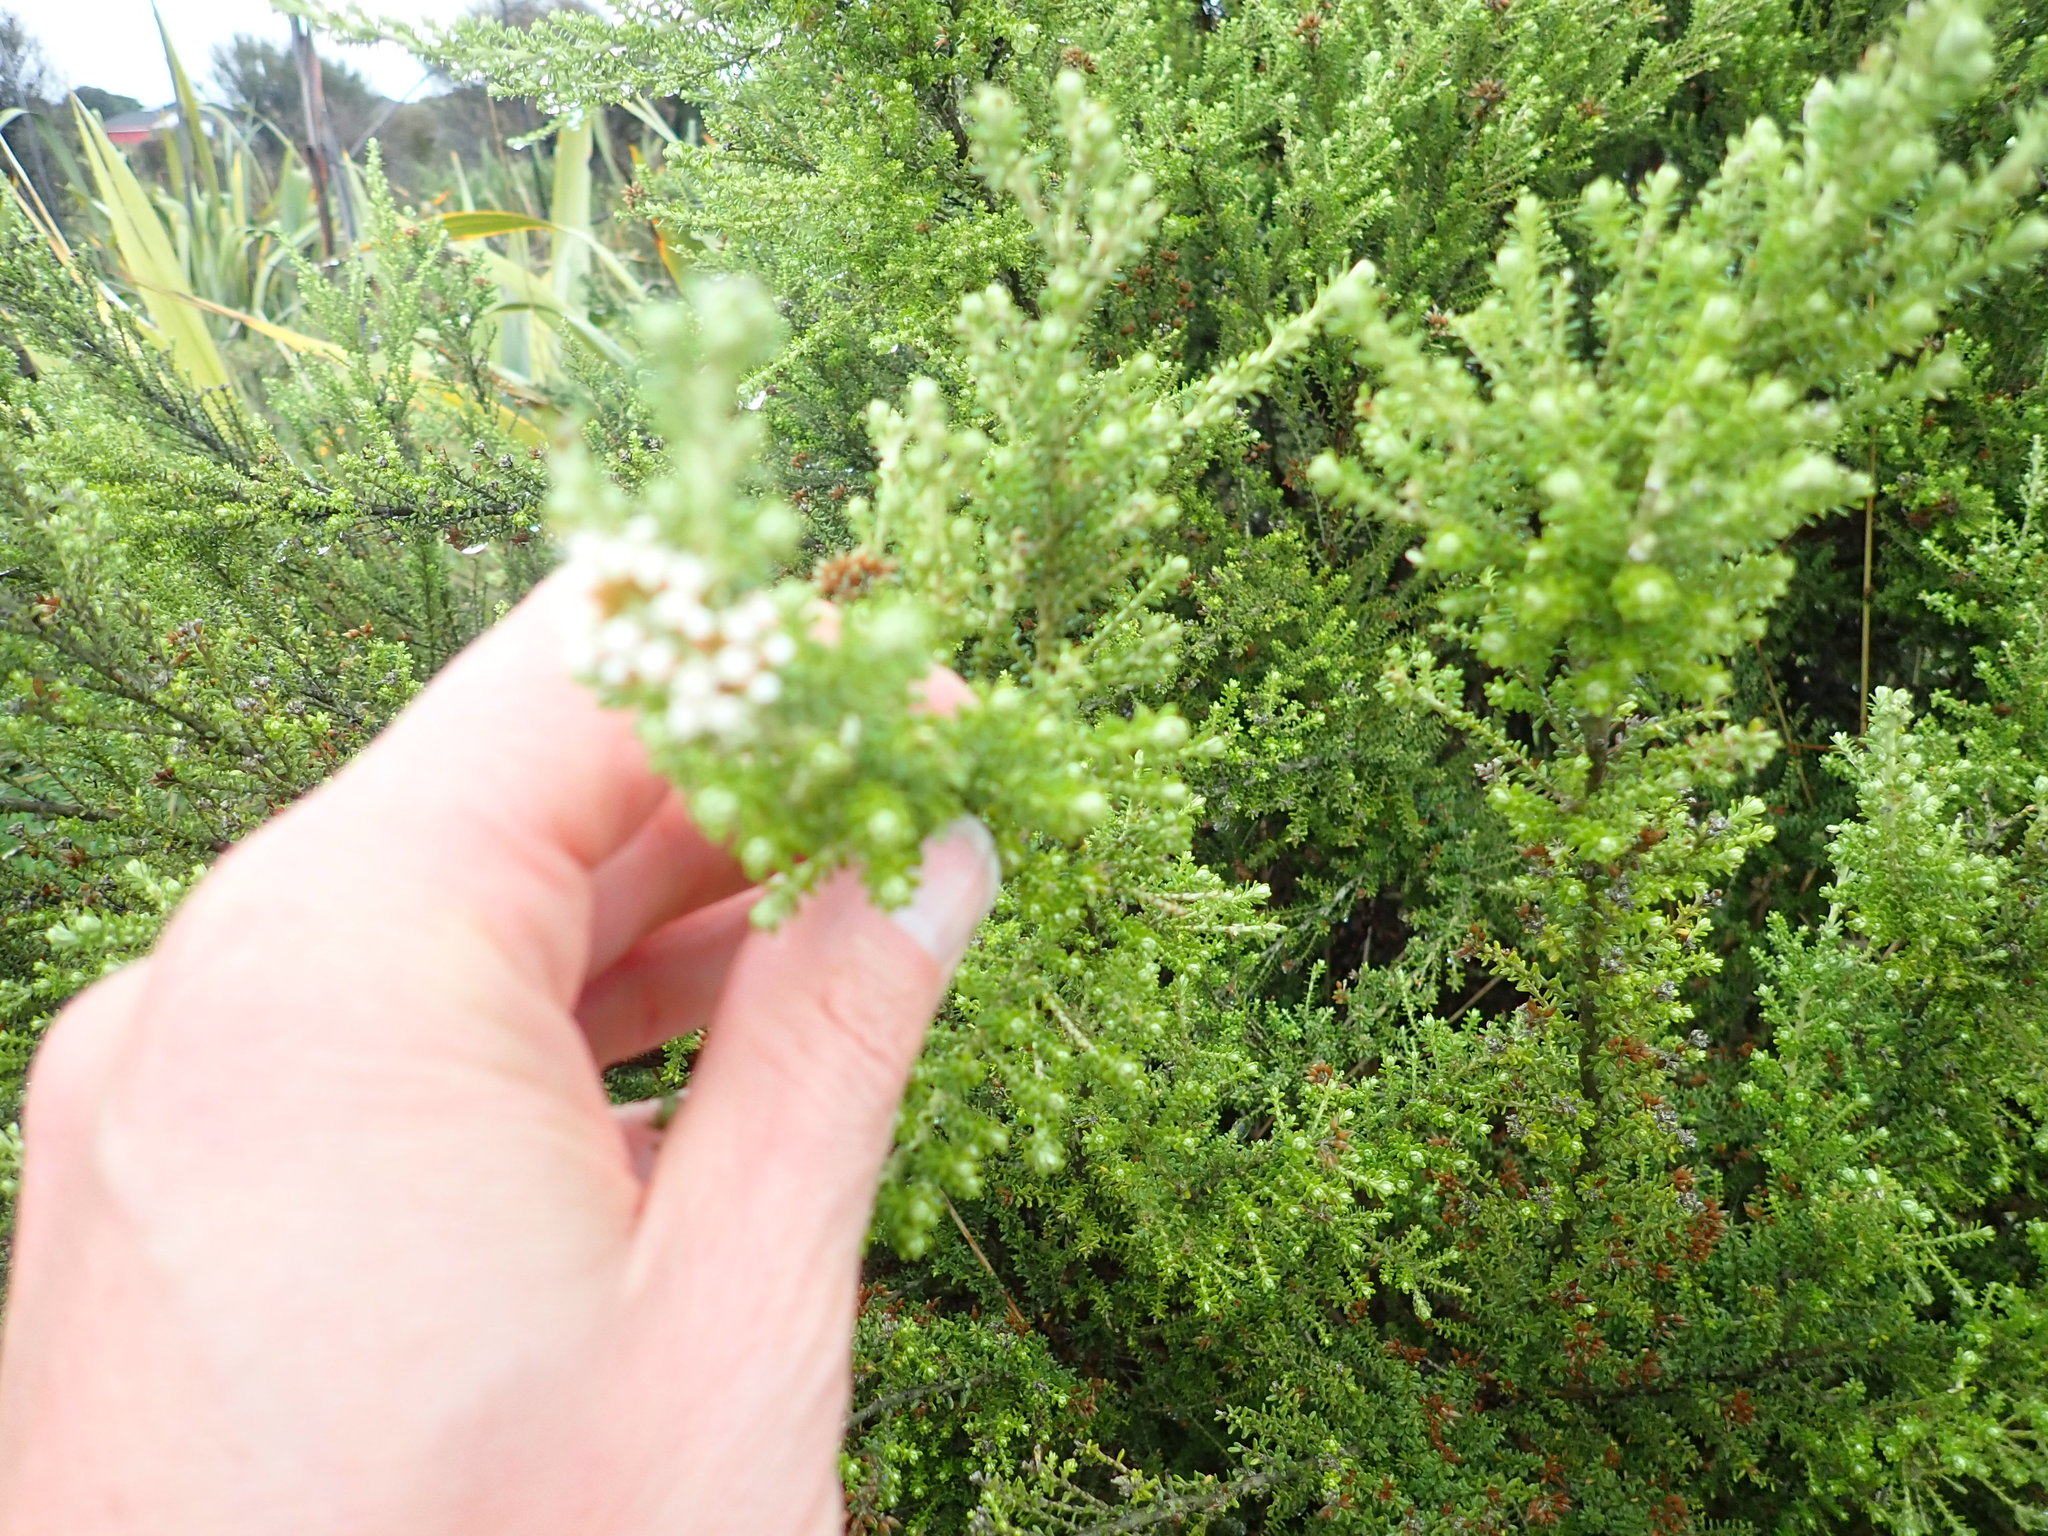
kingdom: Plantae
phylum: Tracheophyta
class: Magnoliopsida
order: Asterales
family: Asteraceae
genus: Ozothamnus
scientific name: Ozothamnus leptophyllus
